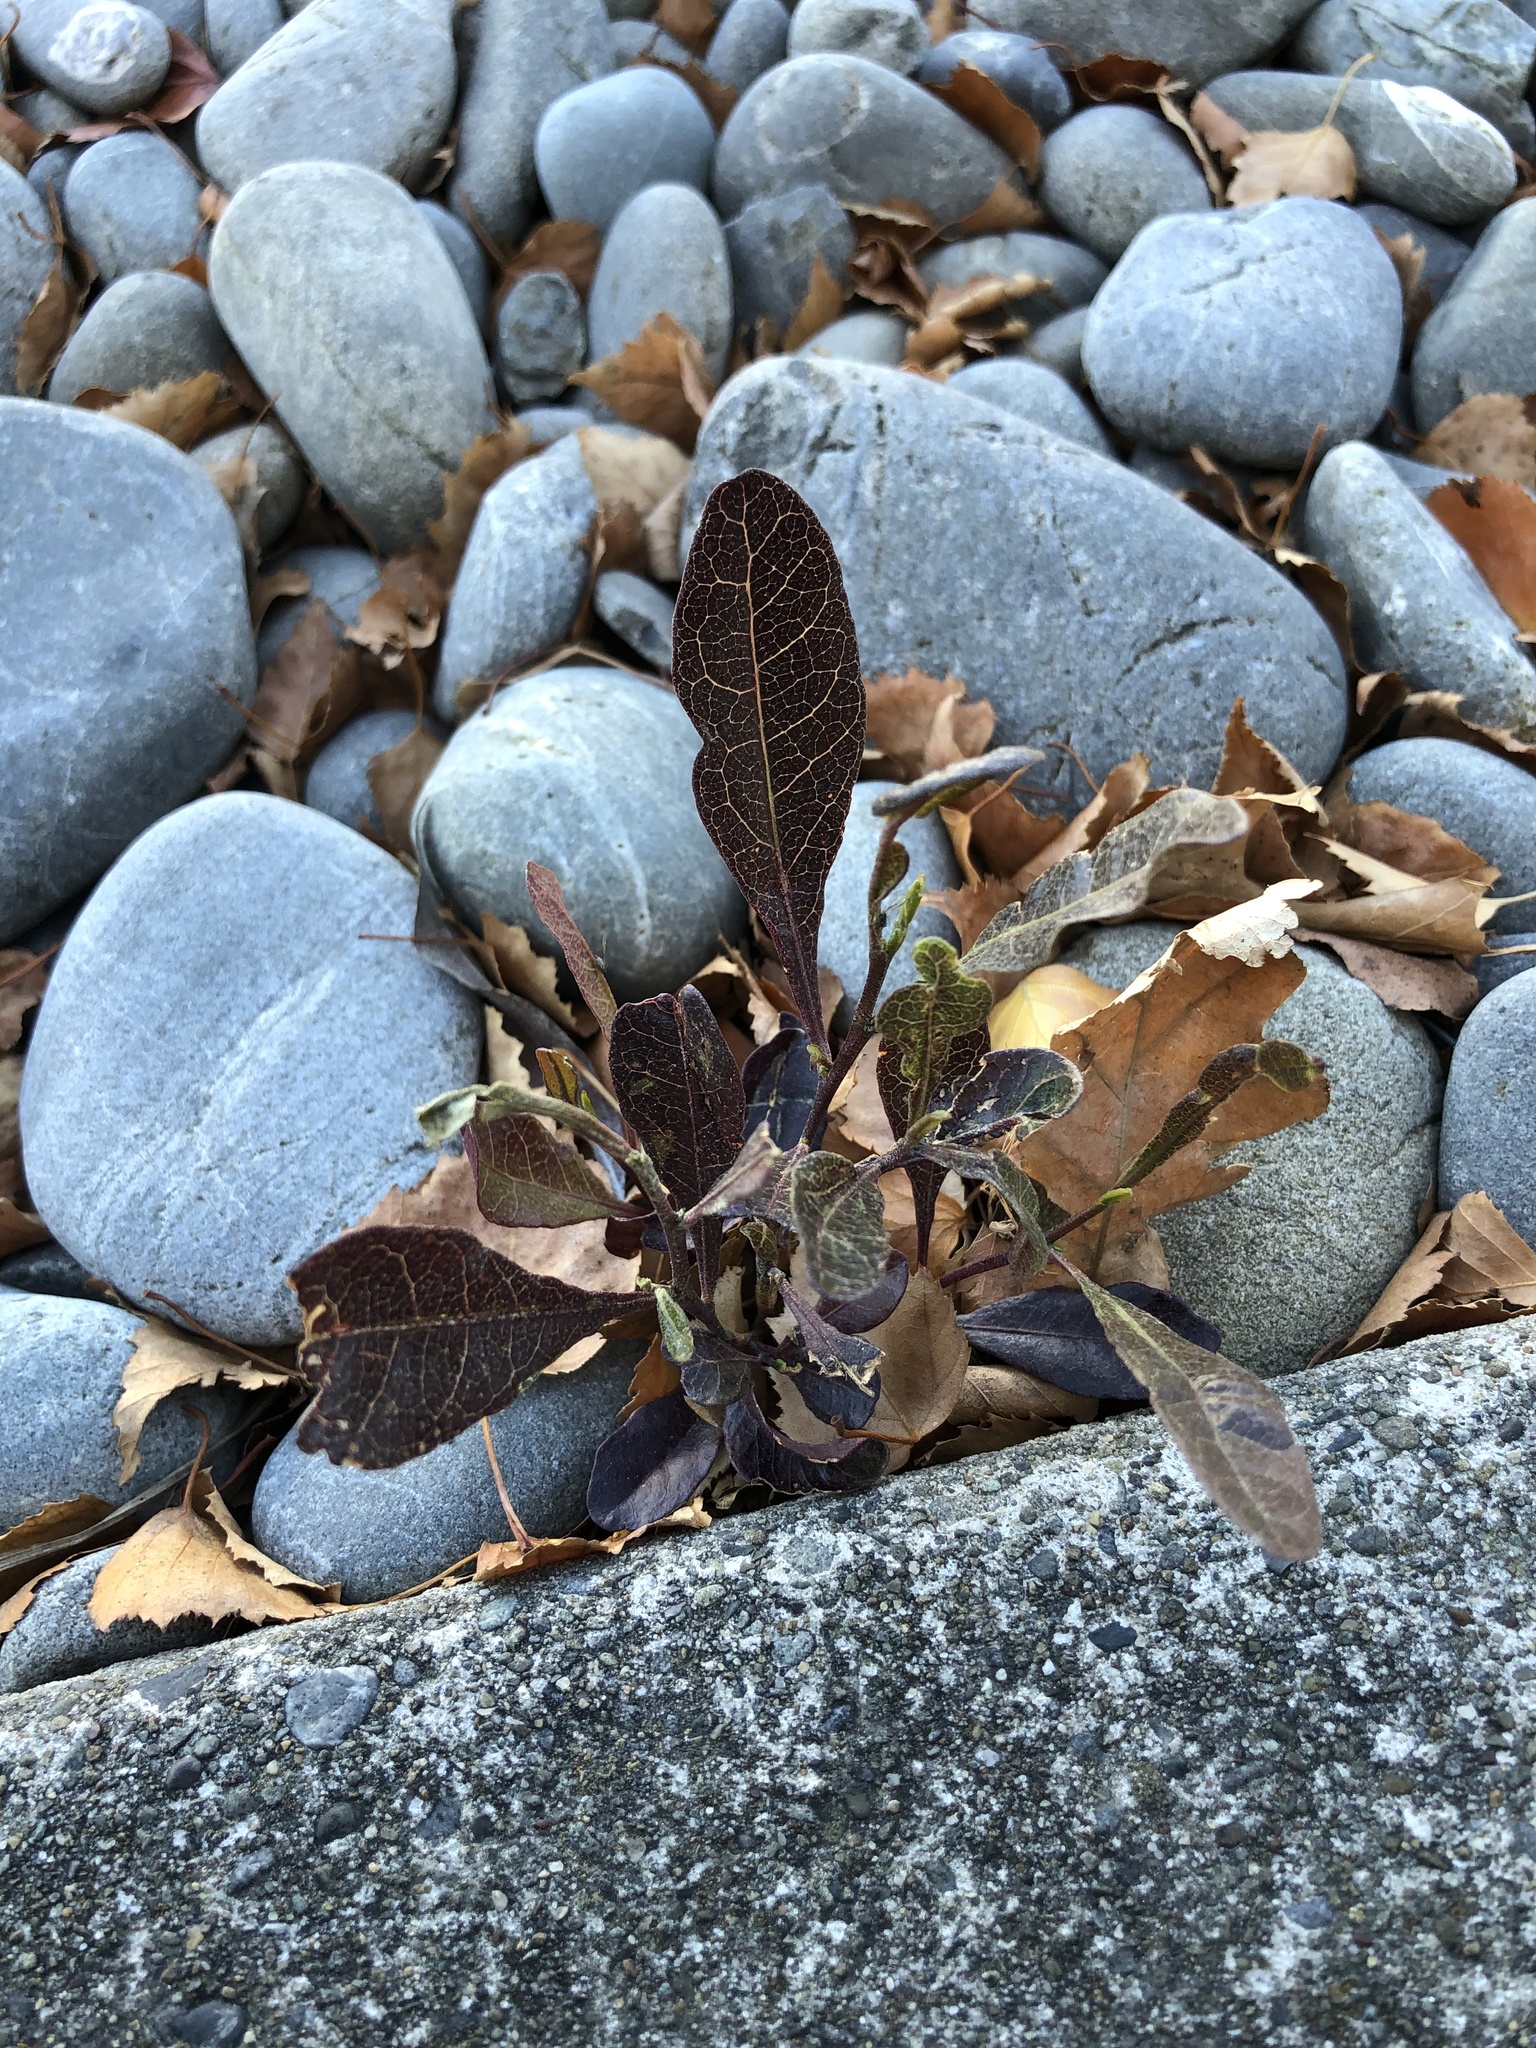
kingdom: Plantae
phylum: Tracheophyta
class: Magnoliopsida
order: Sapindales
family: Sapindaceae
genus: Dodonaea
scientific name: Dodonaea viscosa
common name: Hopbush
